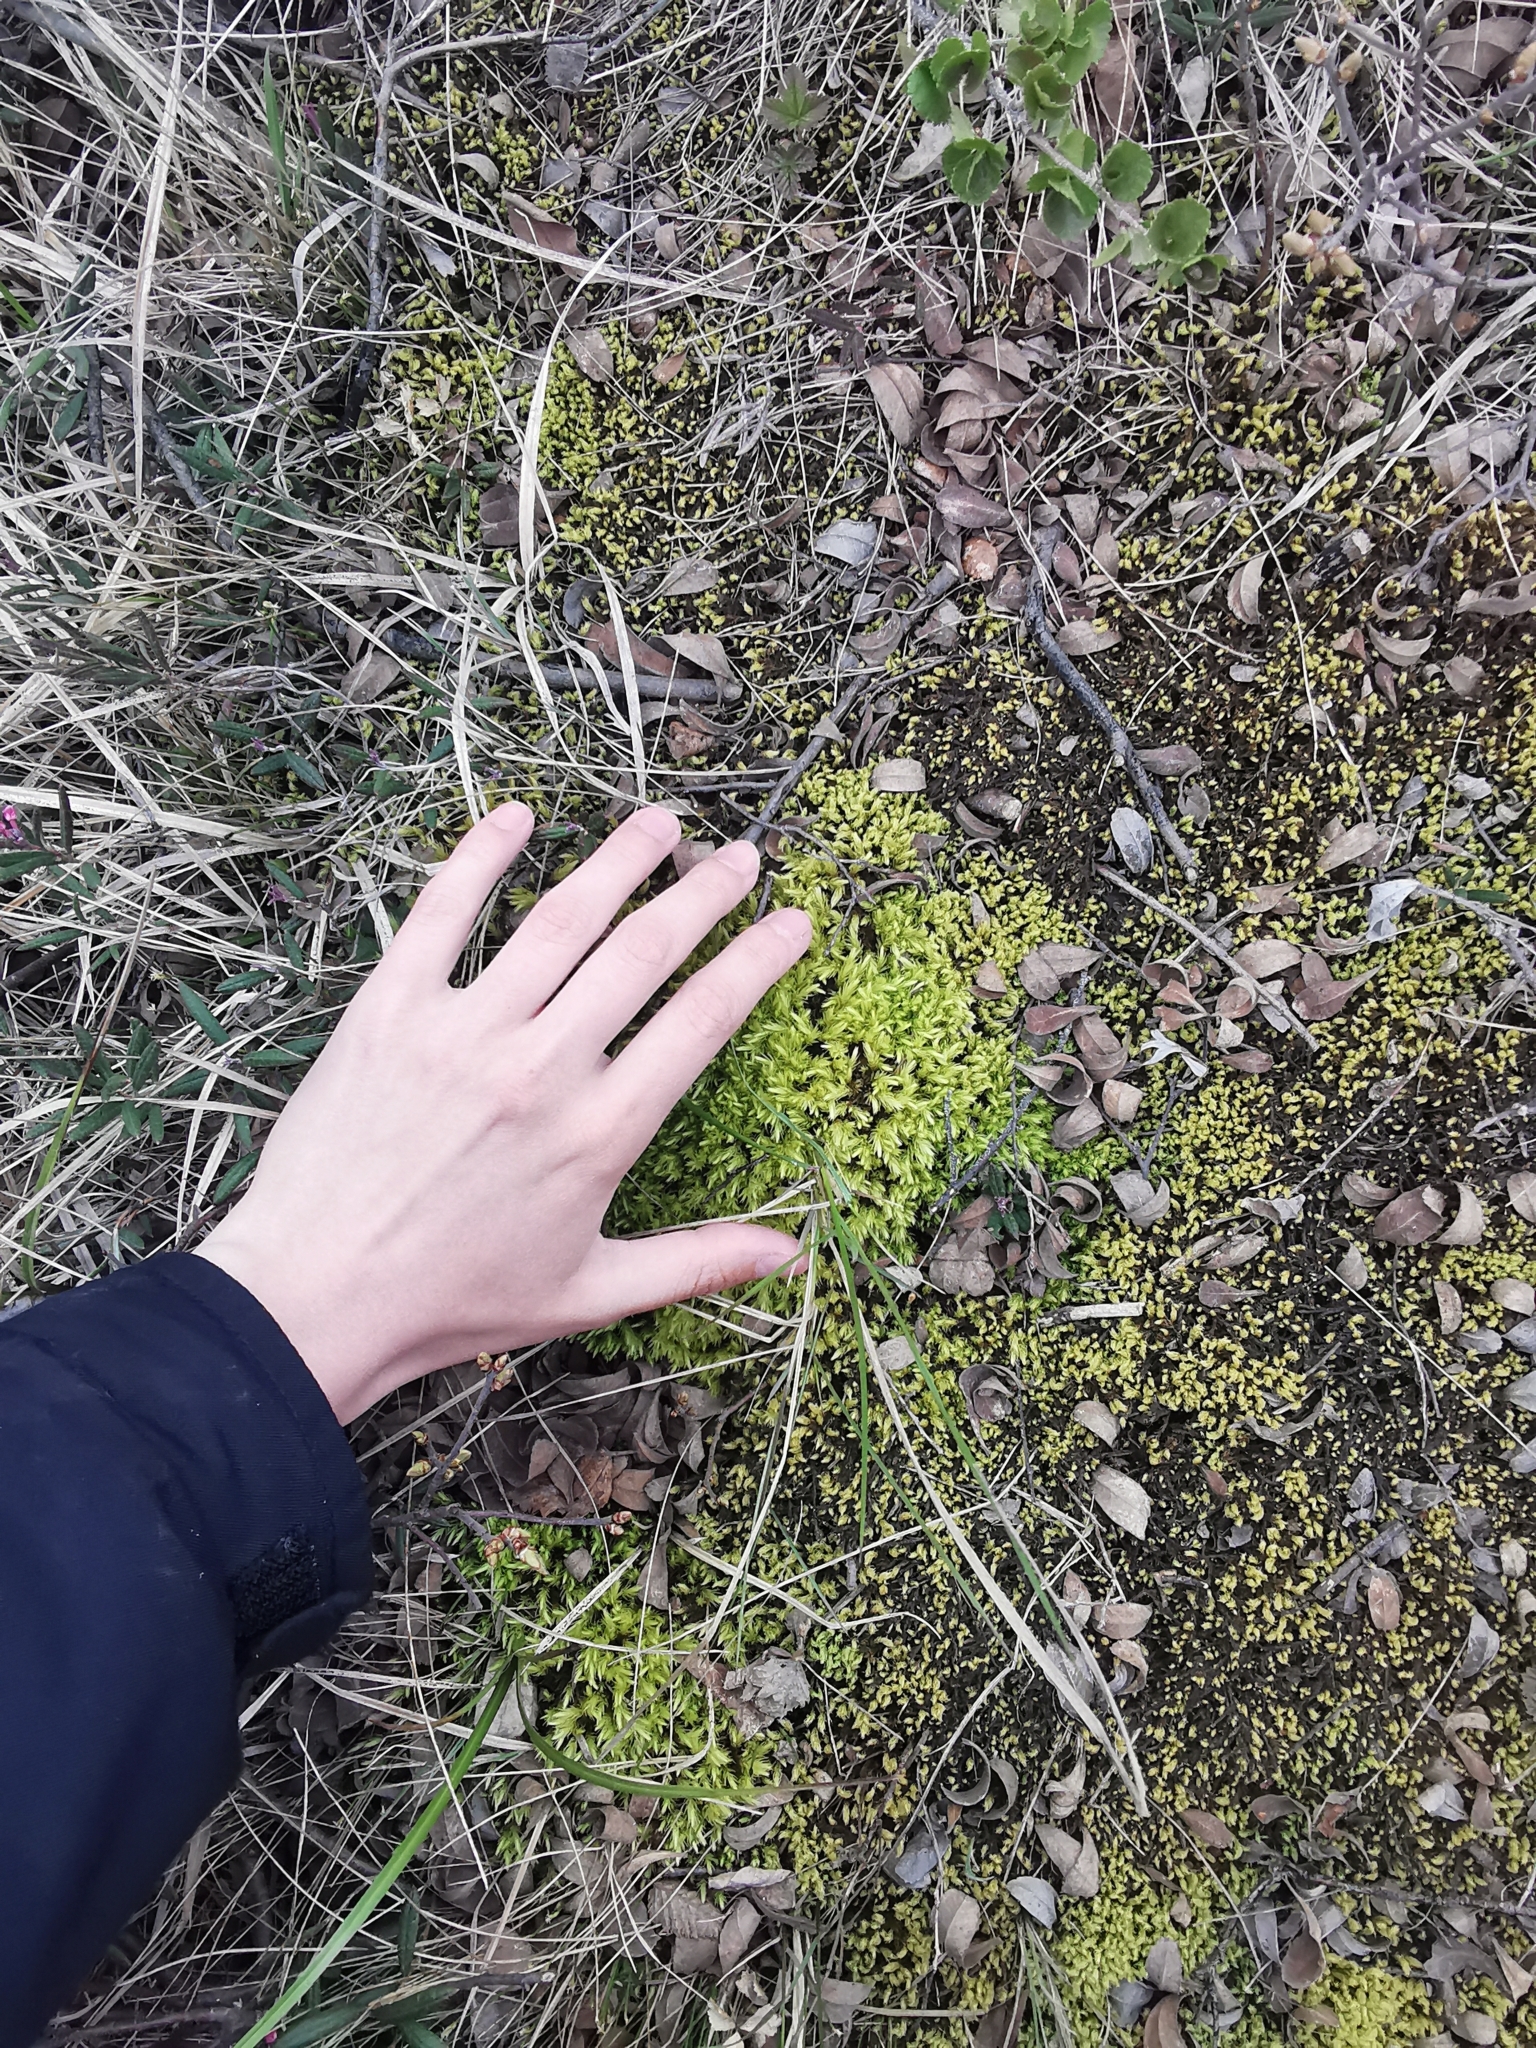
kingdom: Plantae
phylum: Bryophyta
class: Bryopsida
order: Aulacomniales
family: Aulacomniaceae
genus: Aulacomnium
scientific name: Aulacomnium palustre
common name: Bog groove-moss
